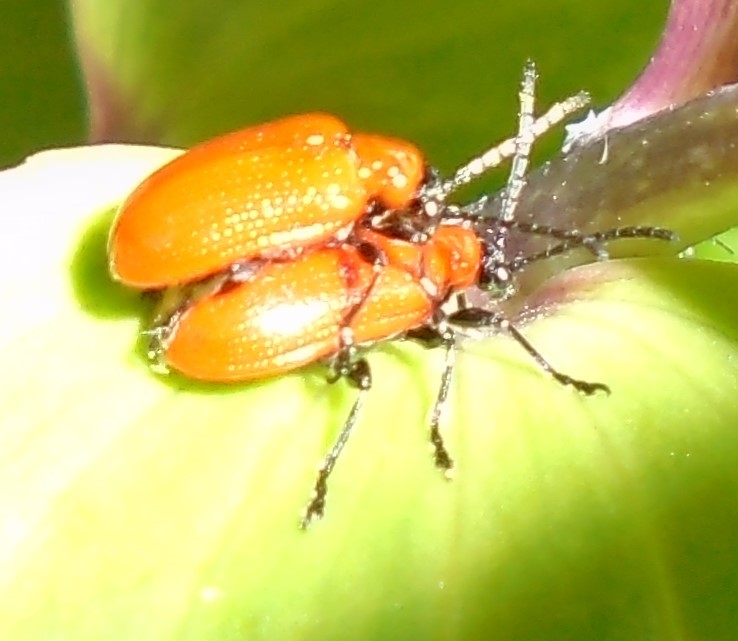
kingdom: Animalia
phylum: Arthropoda
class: Insecta
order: Coleoptera
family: Chrysomelidae
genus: Lilioceris
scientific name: Lilioceris lilii
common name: Lily beetle
